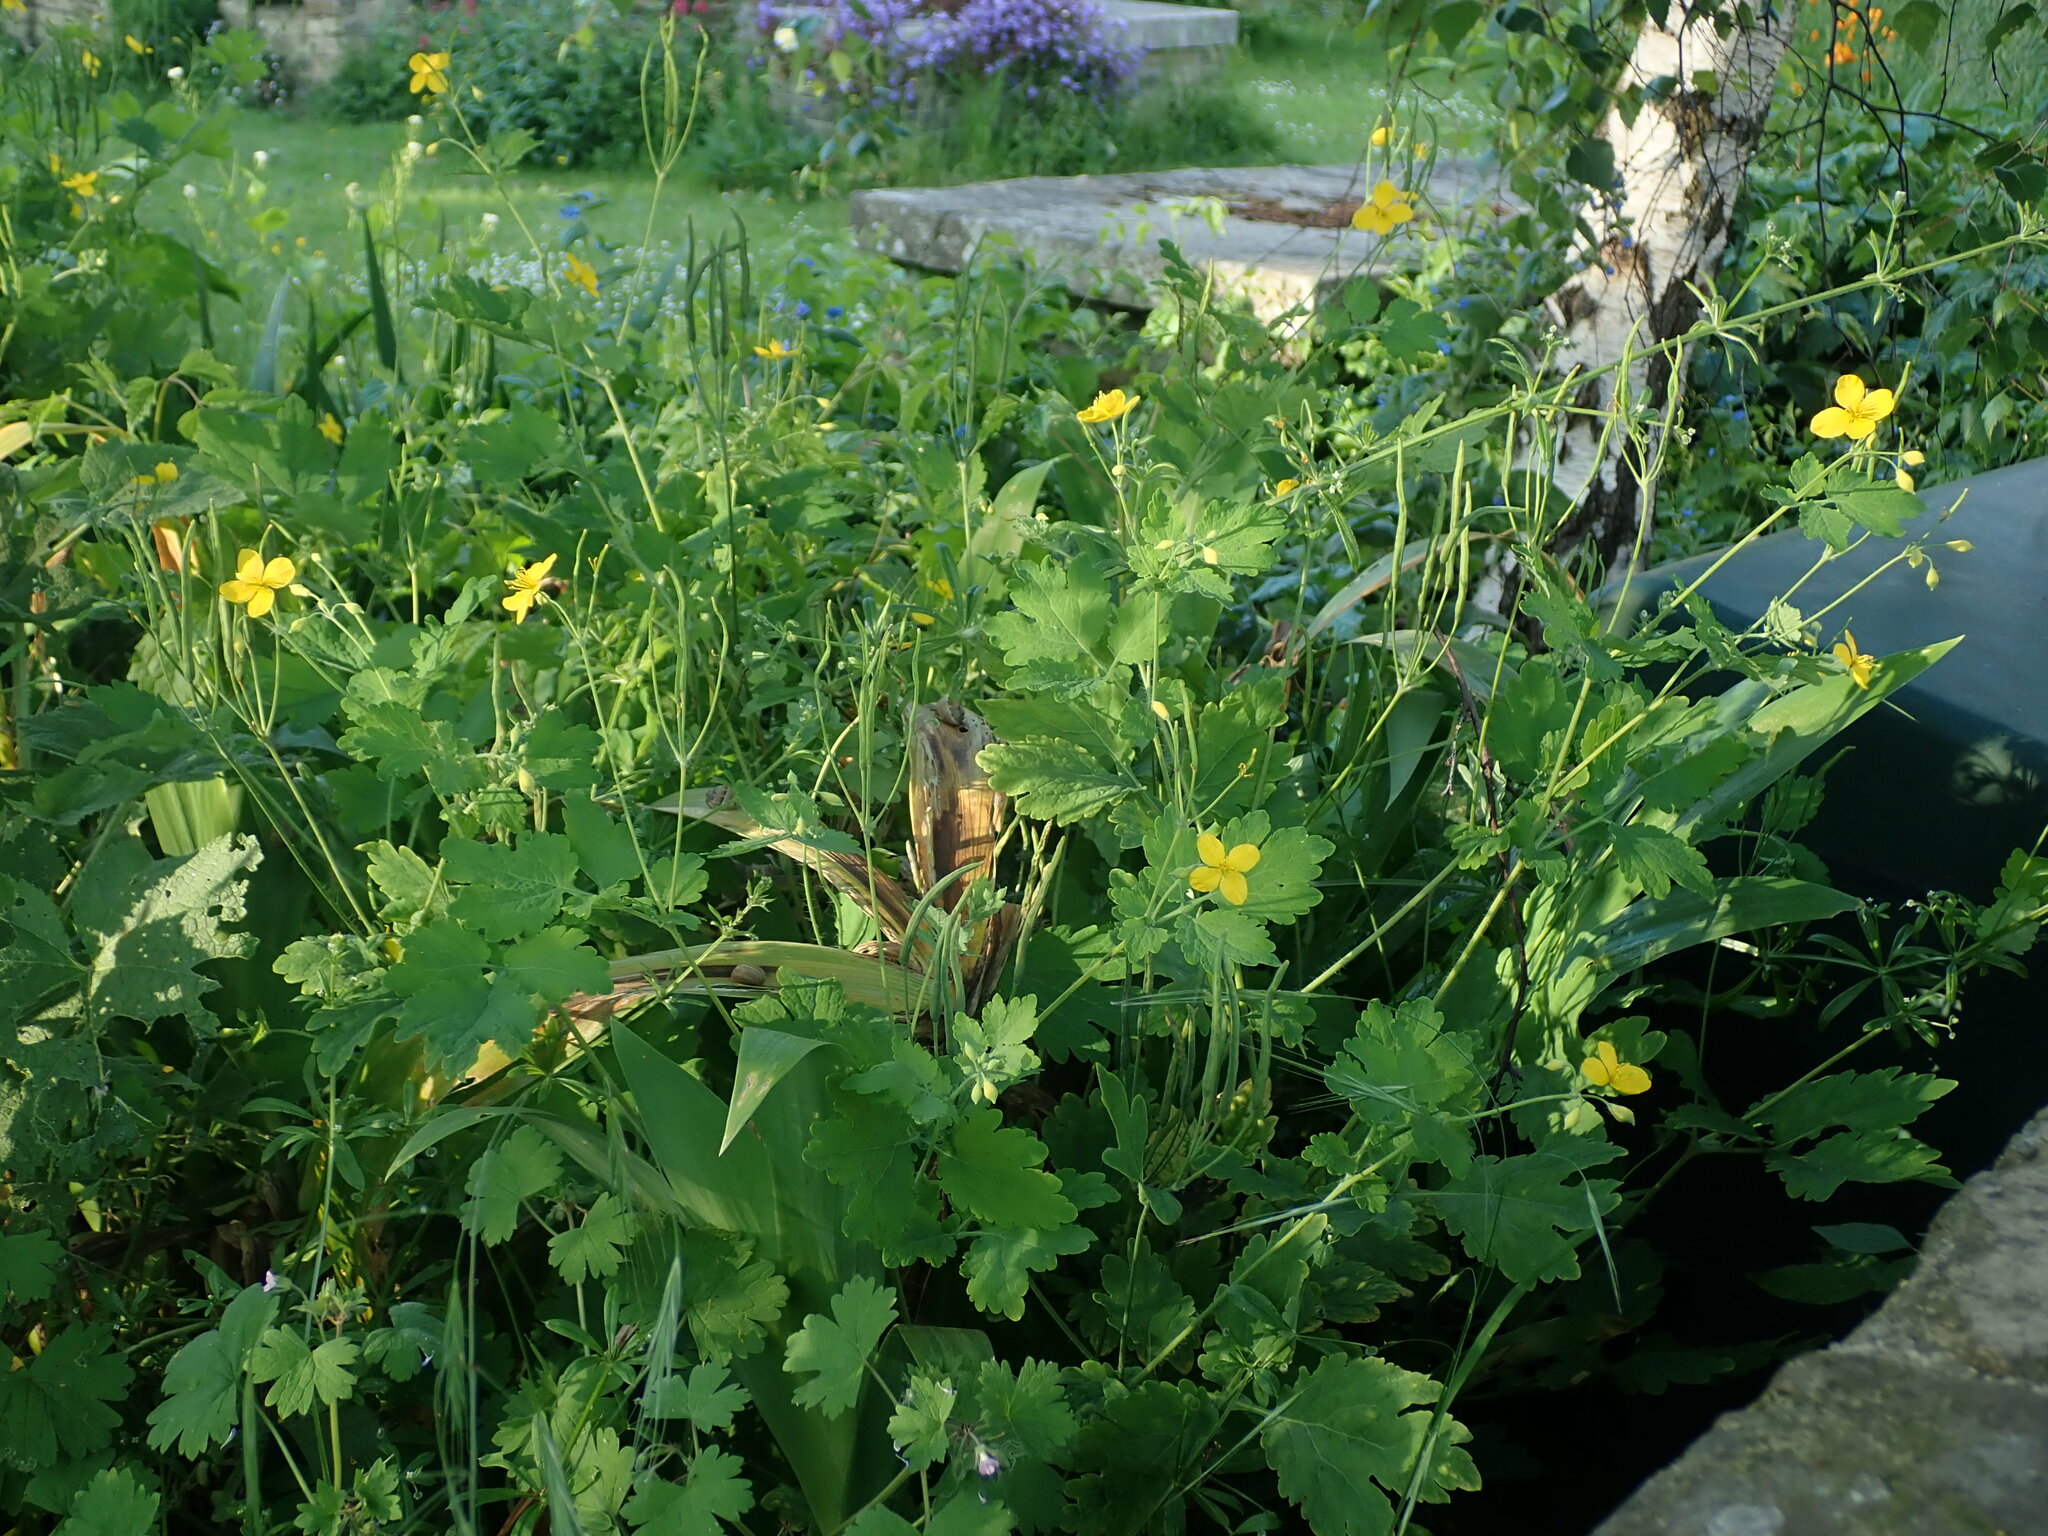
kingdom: Plantae
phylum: Tracheophyta
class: Magnoliopsida
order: Ranunculales
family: Papaveraceae
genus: Chelidonium
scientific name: Chelidonium majus
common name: Greater celandine
